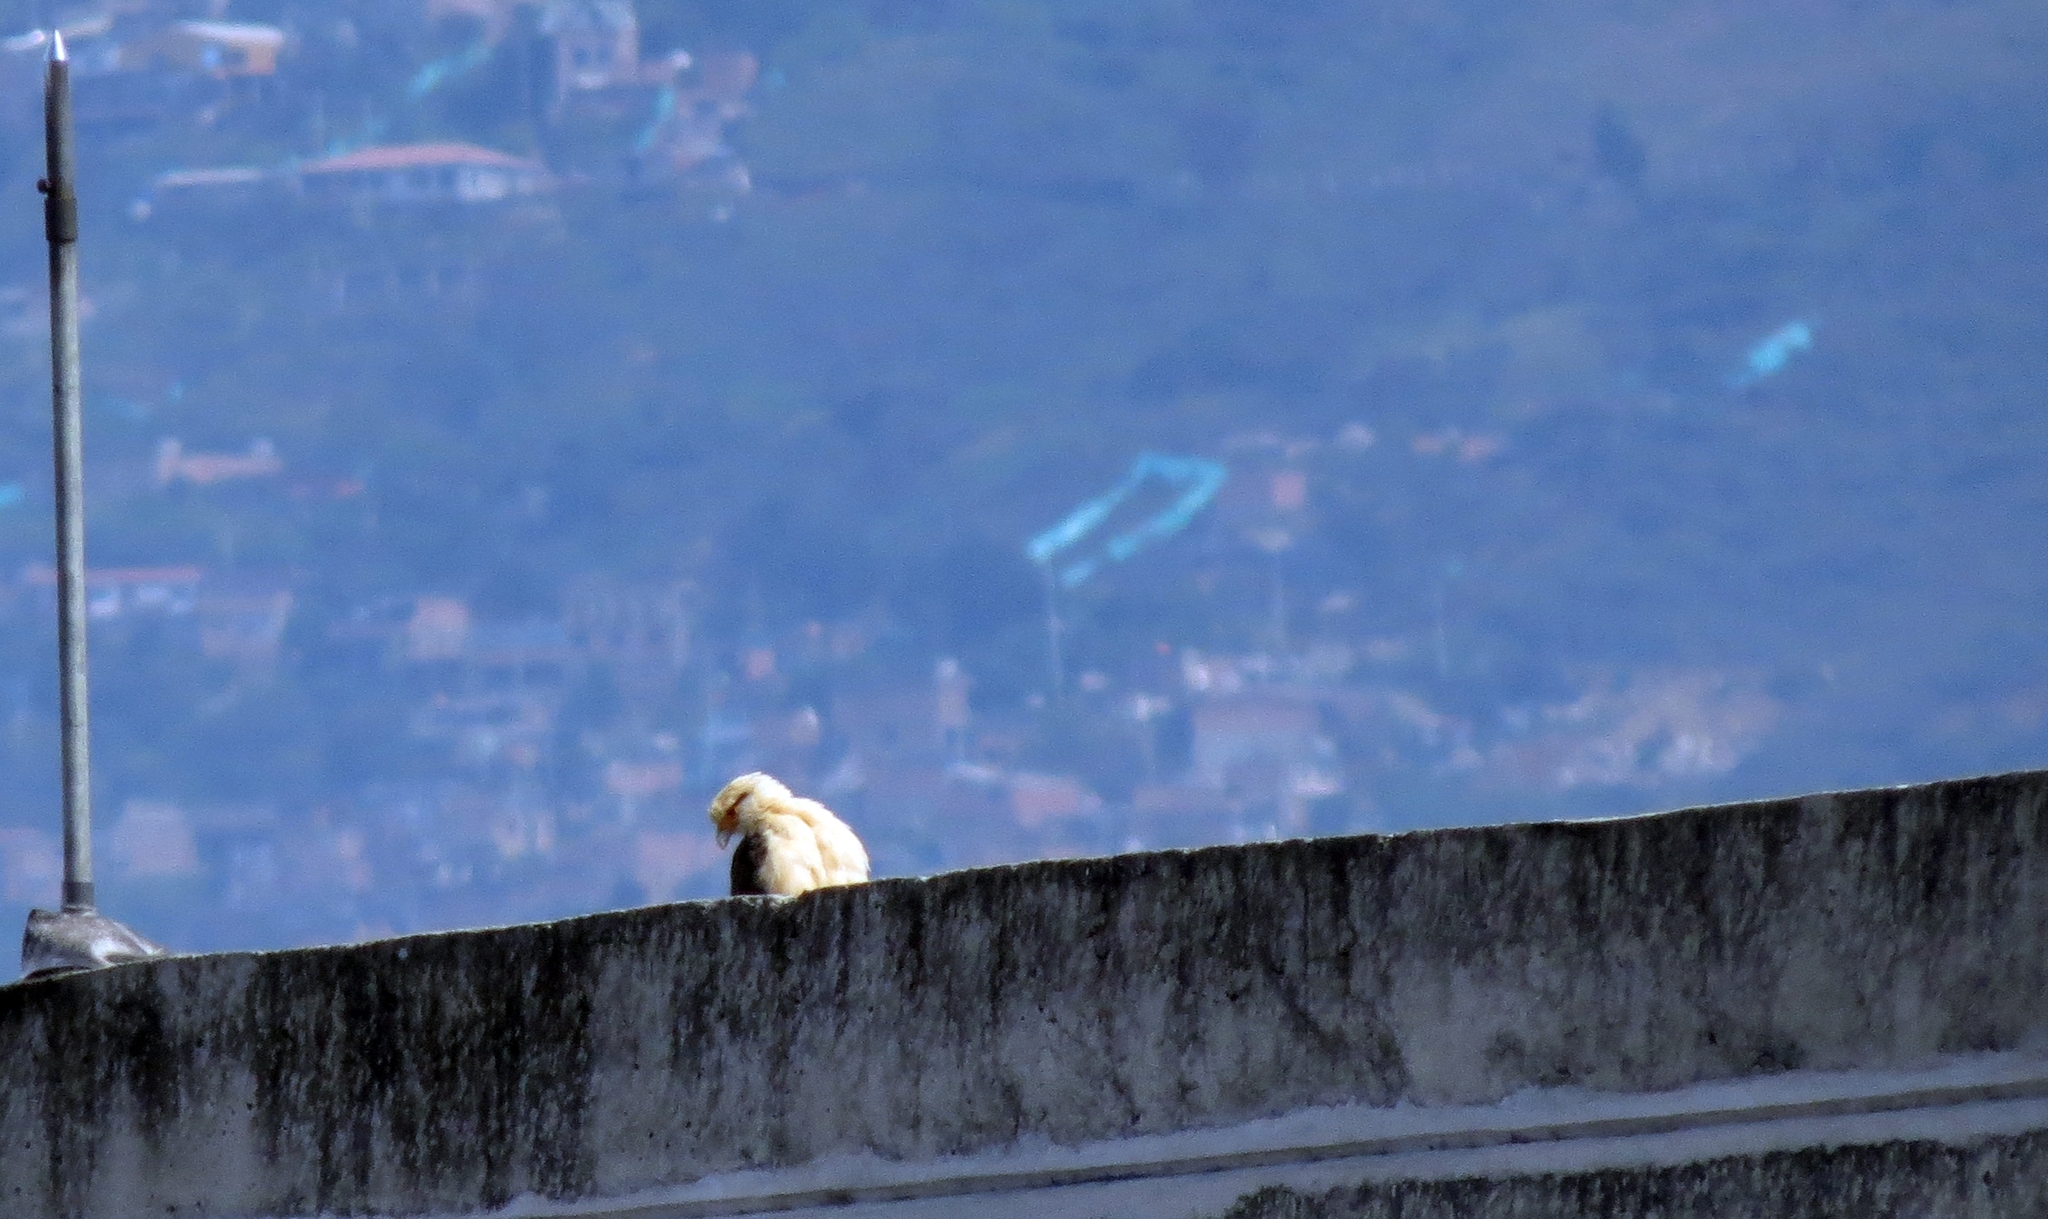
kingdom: Animalia
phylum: Chordata
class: Aves
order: Falconiformes
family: Falconidae
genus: Daptrius
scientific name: Daptrius
